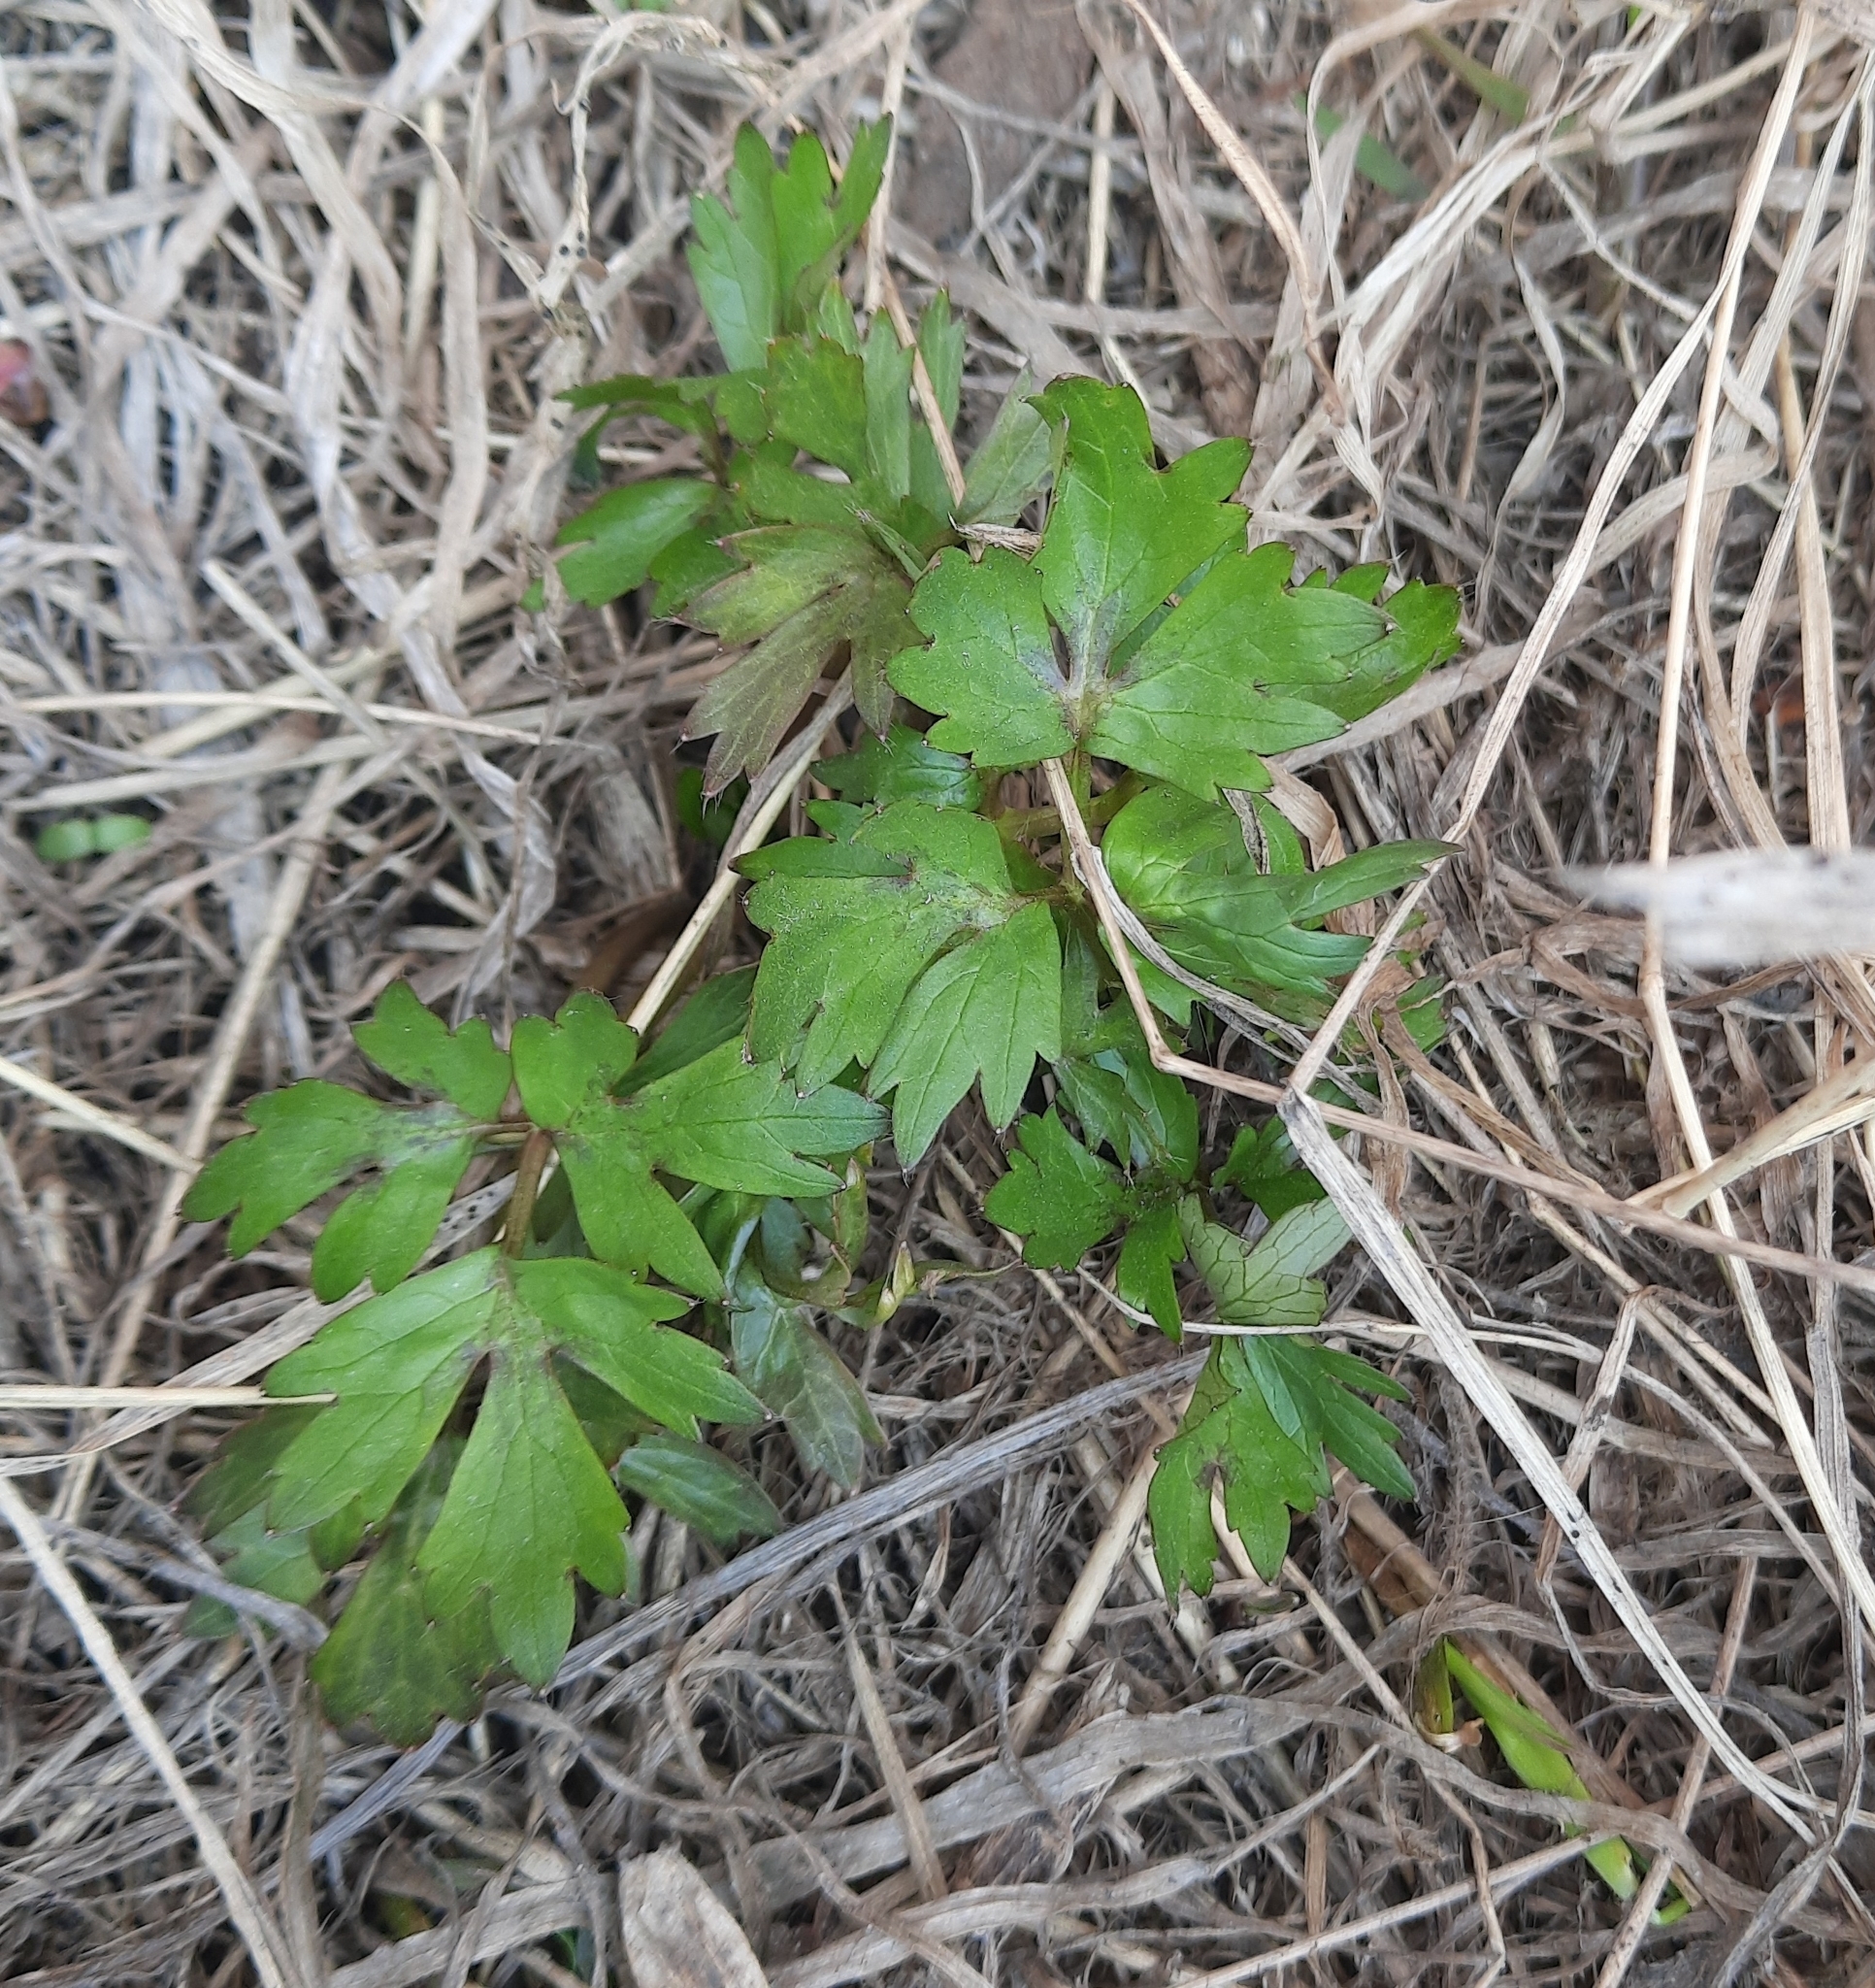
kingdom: Plantae
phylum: Tracheophyta
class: Magnoliopsida
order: Ranunculales
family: Ranunculaceae
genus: Ranunculus
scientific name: Ranunculus repens
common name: Creeping buttercup
